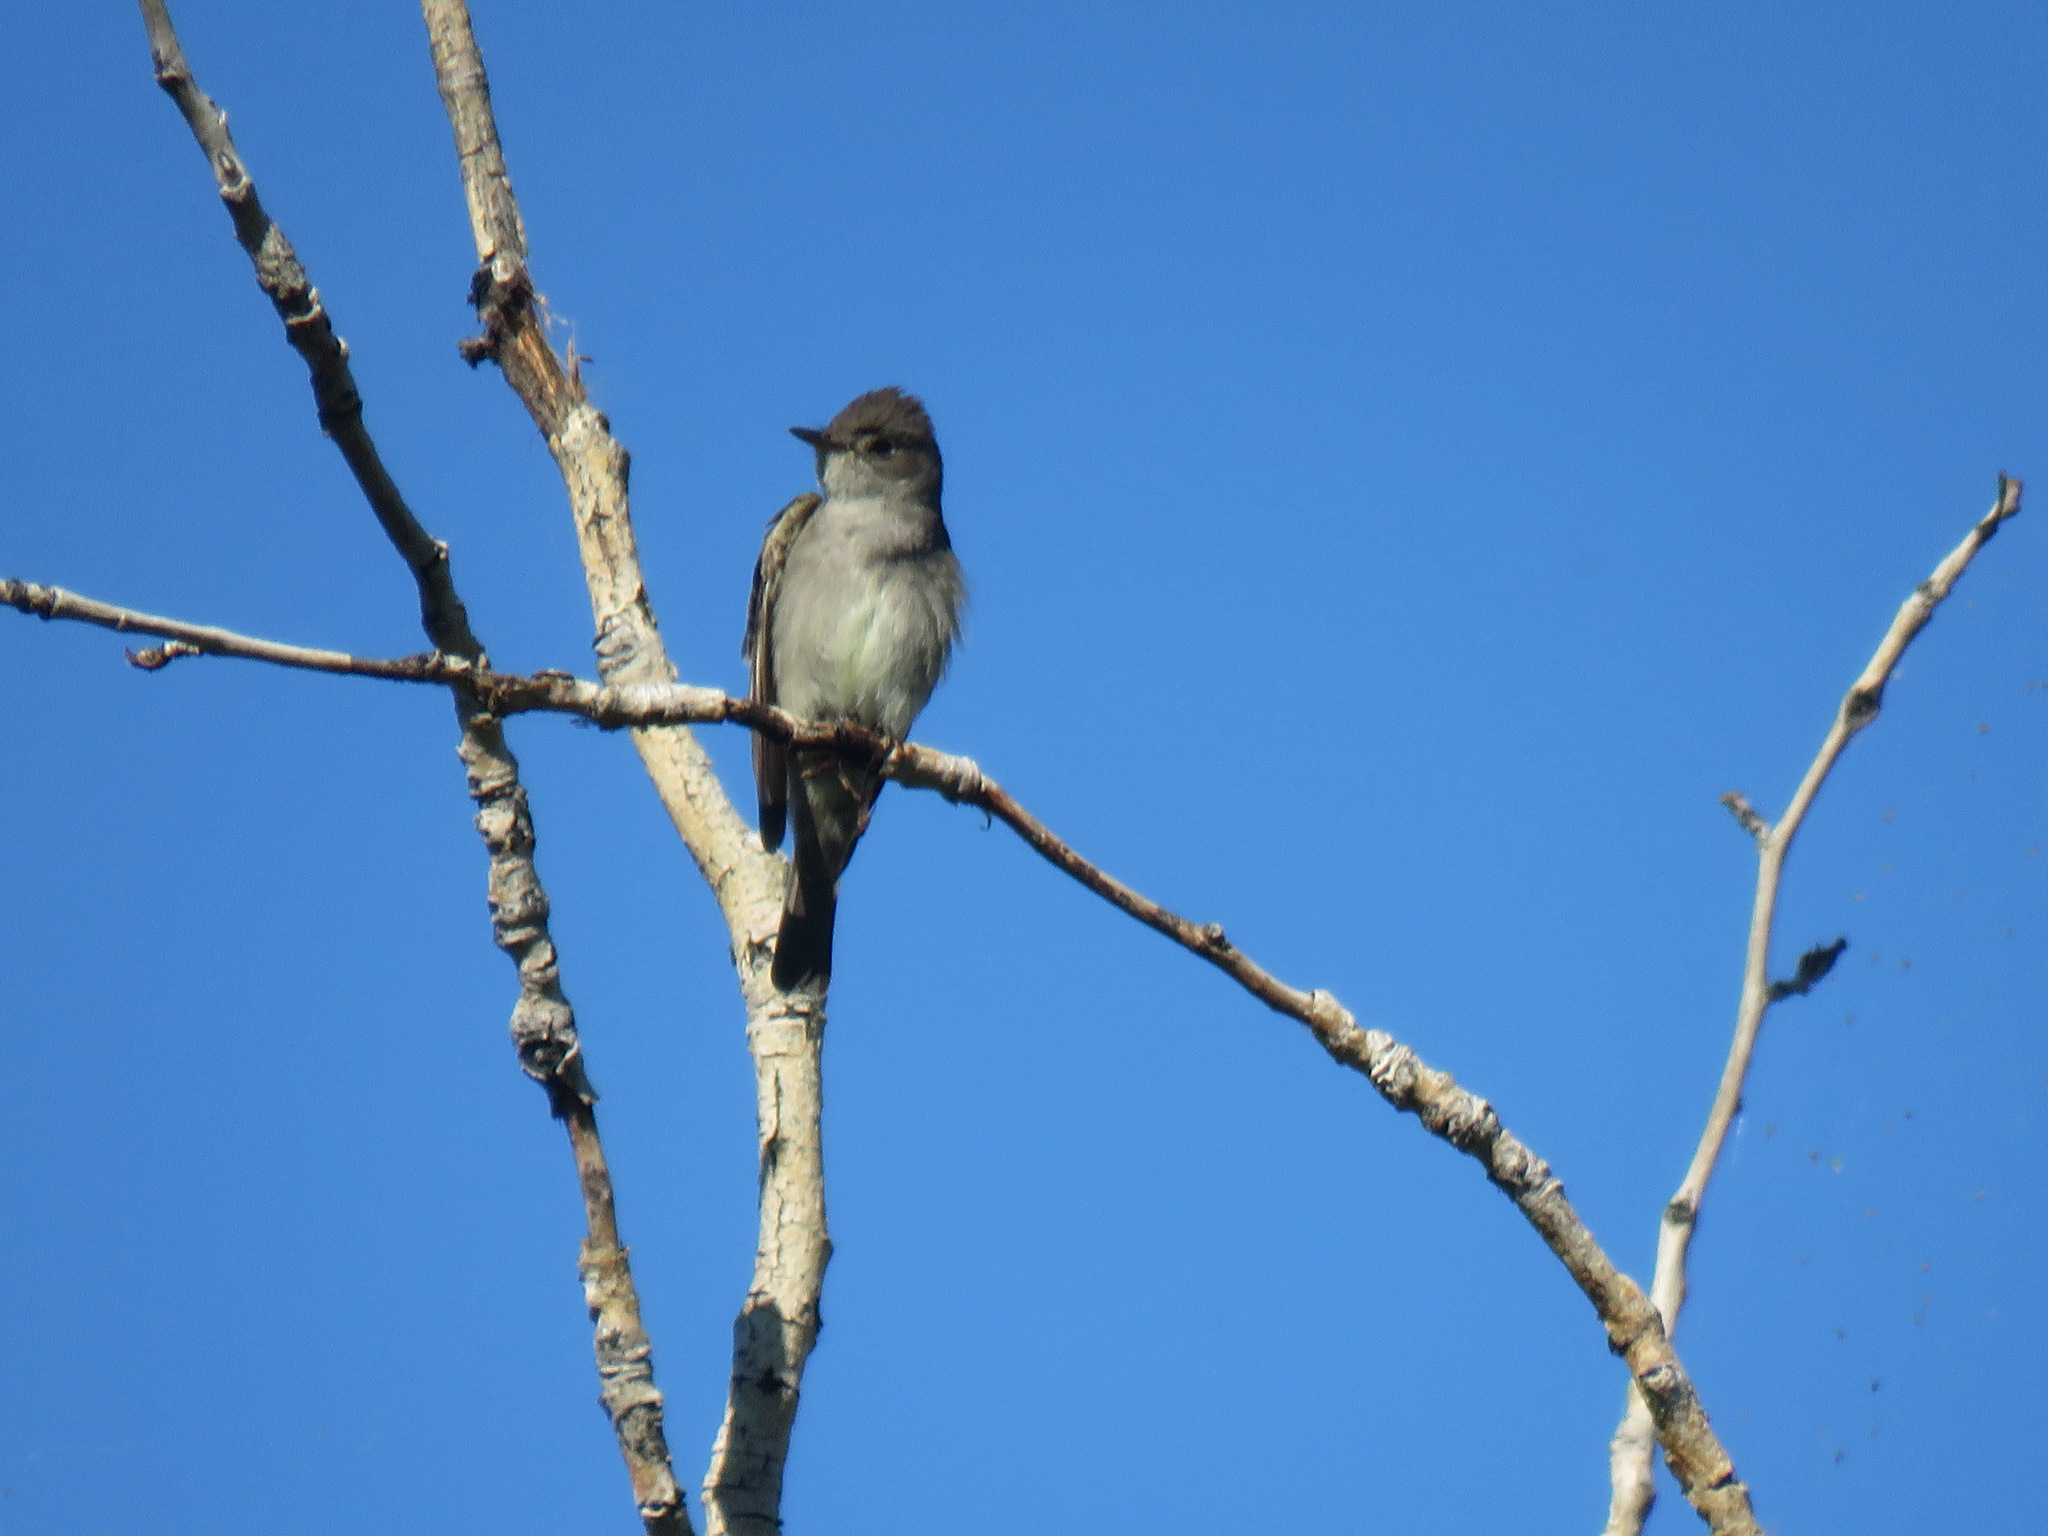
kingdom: Animalia
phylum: Chordata
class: Aves
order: Passeriformes
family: Tyrannidae
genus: Contopus
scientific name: Contopus sordidulus
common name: Western wood-pewee
